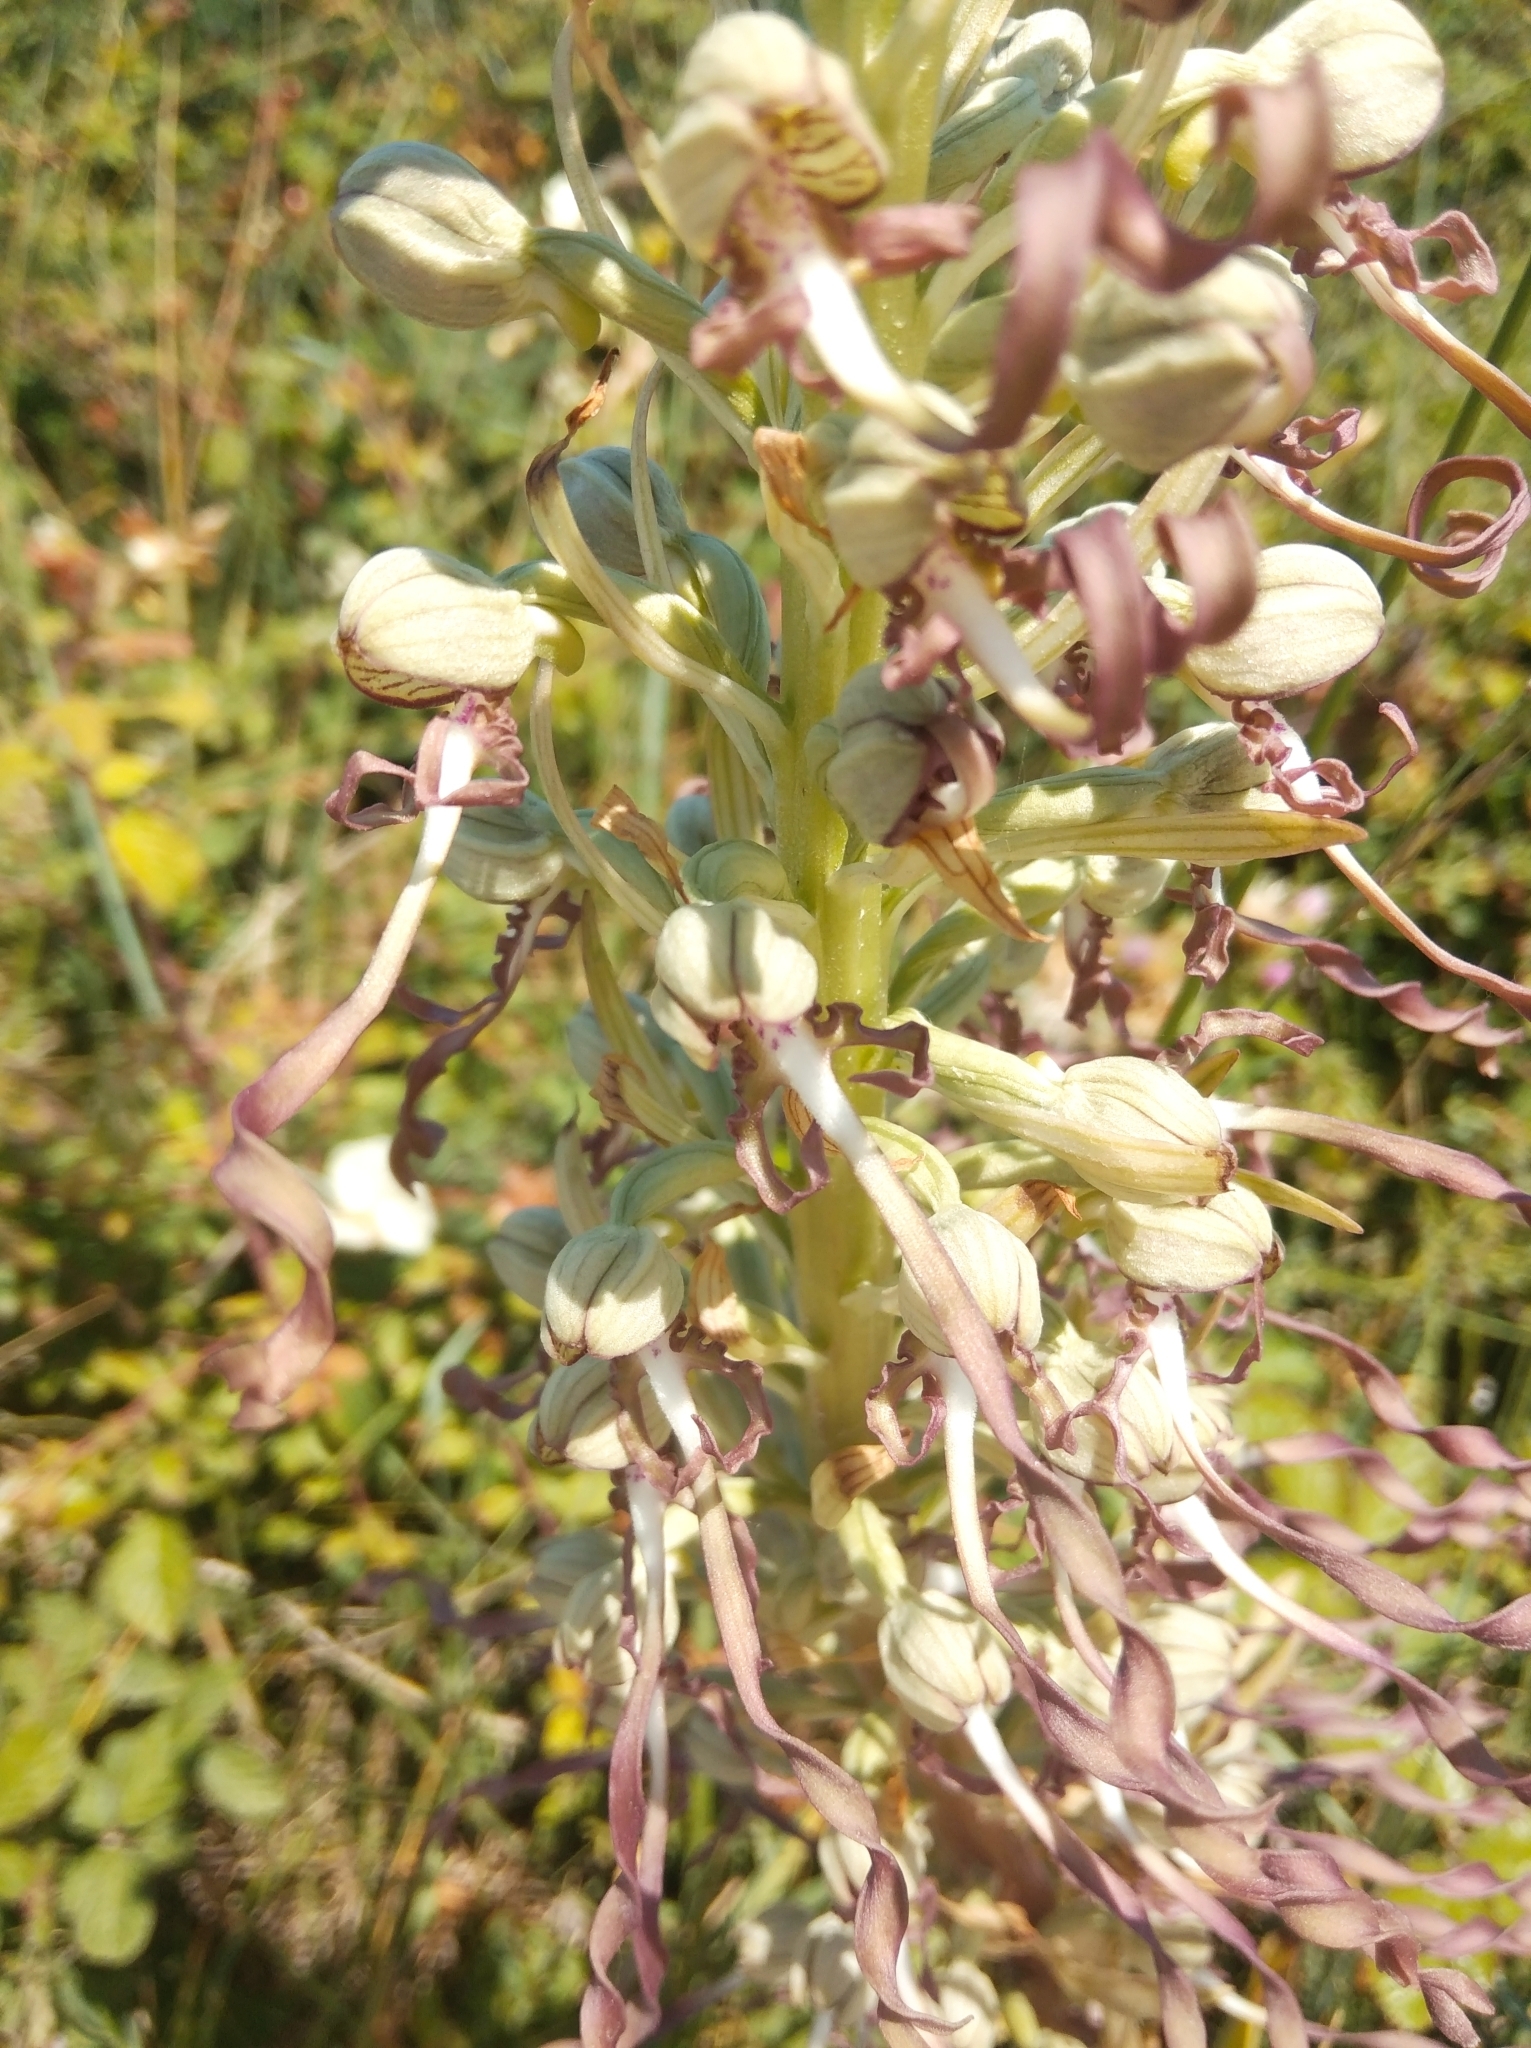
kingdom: Plantae
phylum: Tracheophyta
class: Liliopsida
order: Asparagales
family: Orchidaceae
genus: Himantoglossum
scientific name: Himantoglossum hircinum
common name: Lizard orchid
